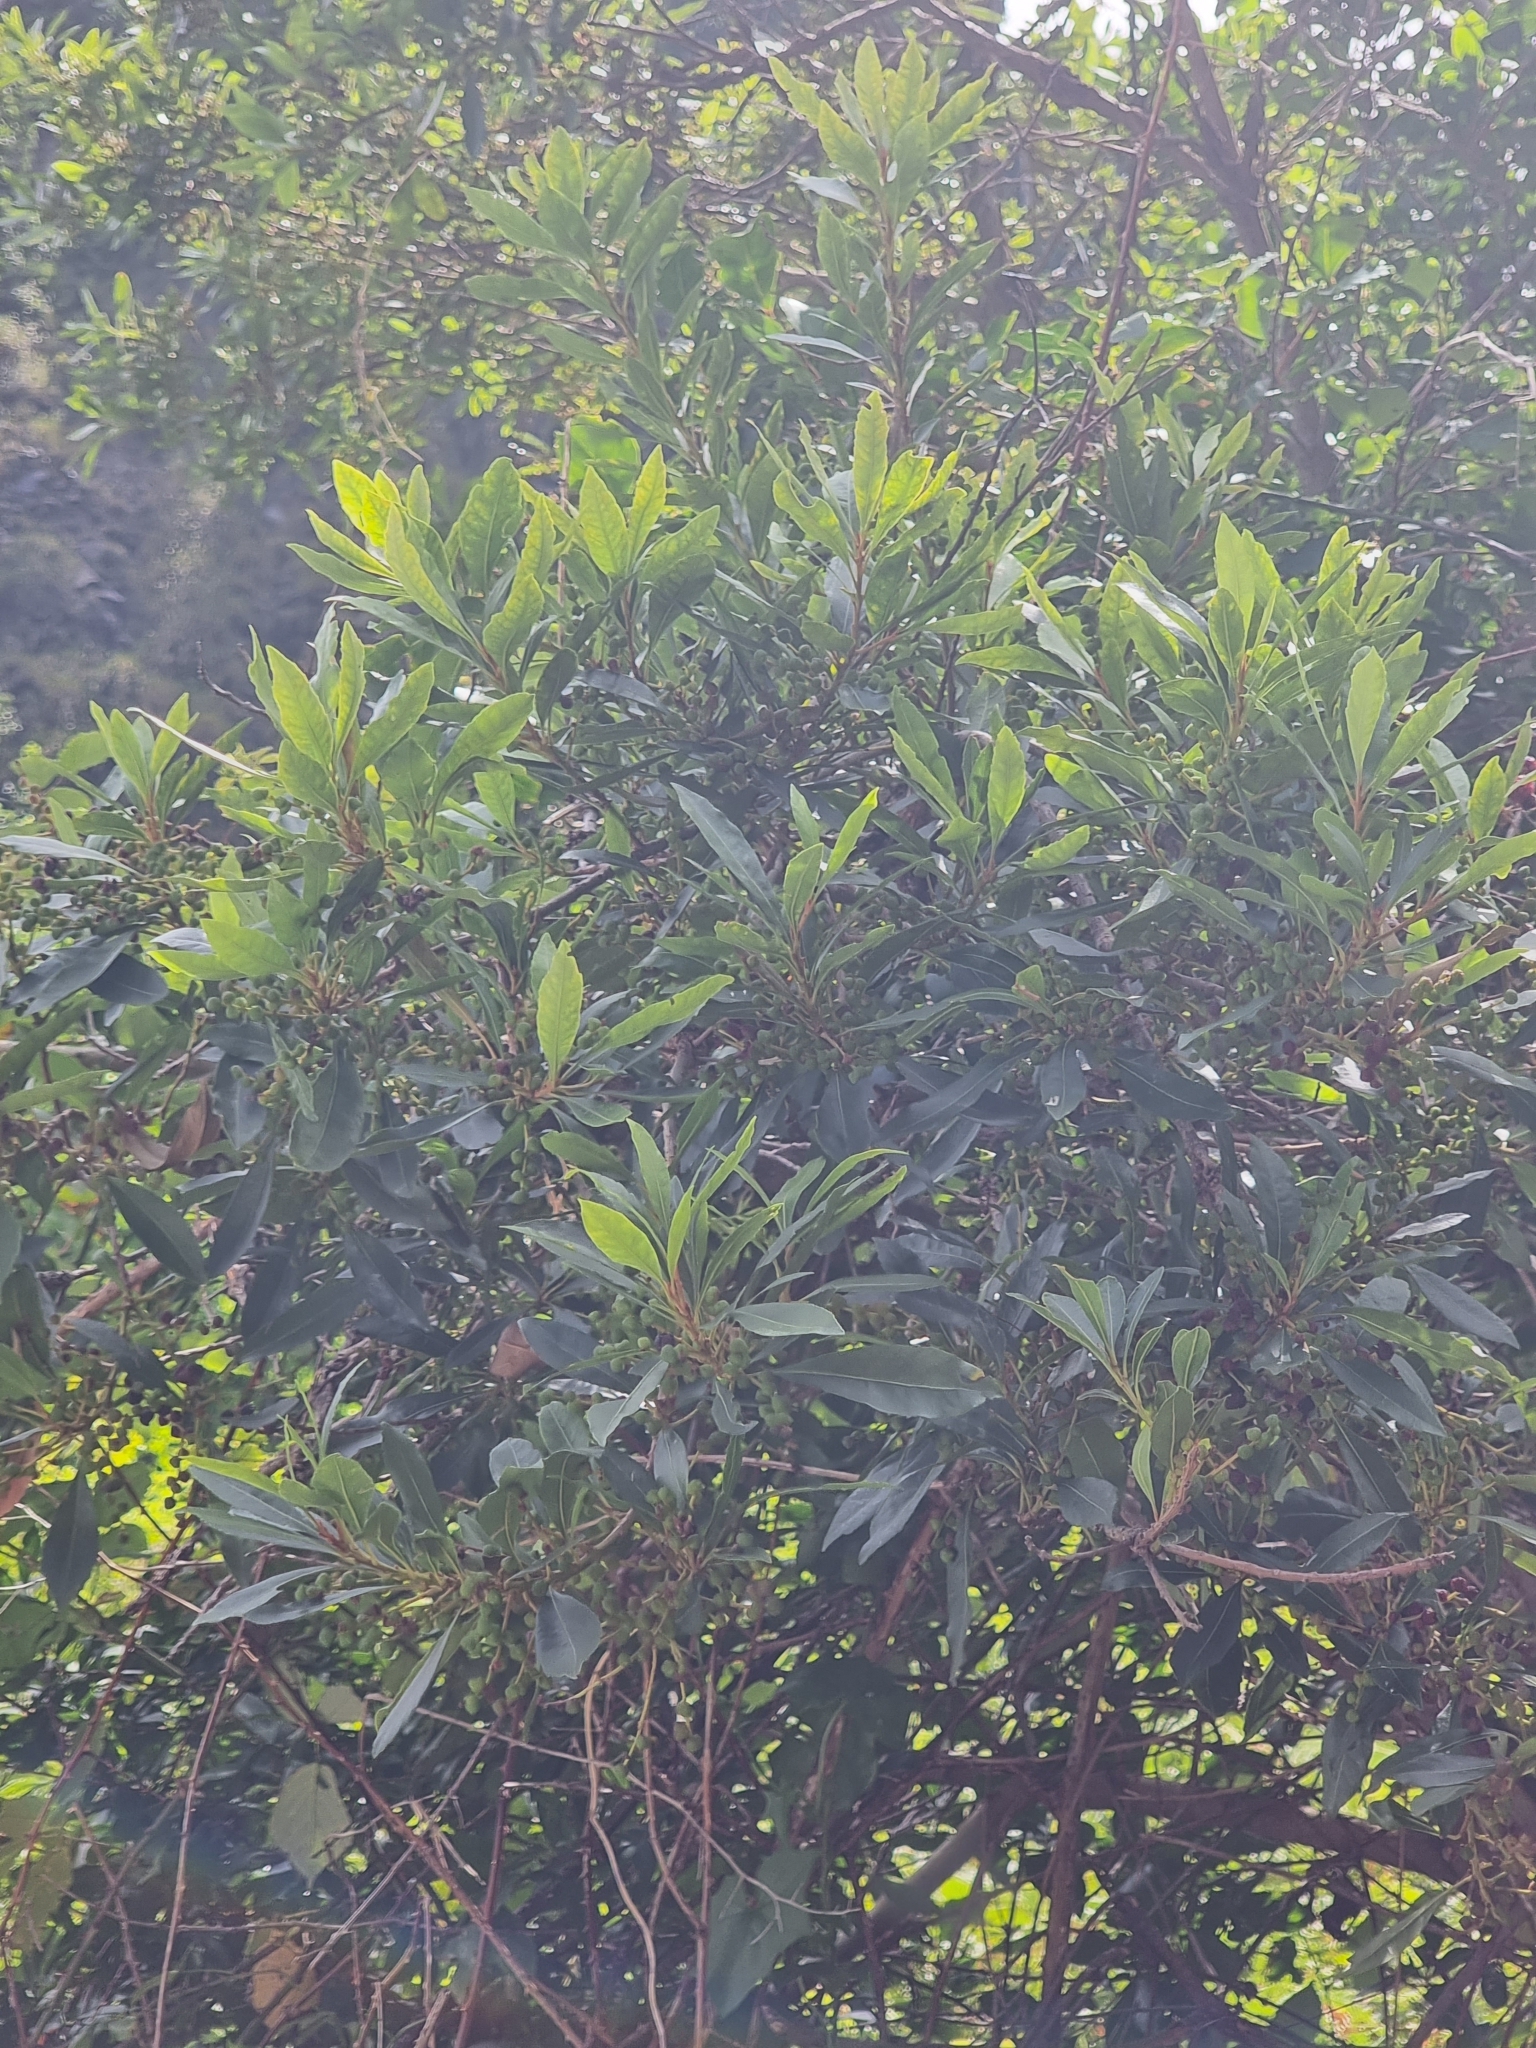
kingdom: Plantae
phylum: Tracheophyta
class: Magnoliopsida
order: Fagales
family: Myricaceae
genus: Morella
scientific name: Morella faya
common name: Firetree
